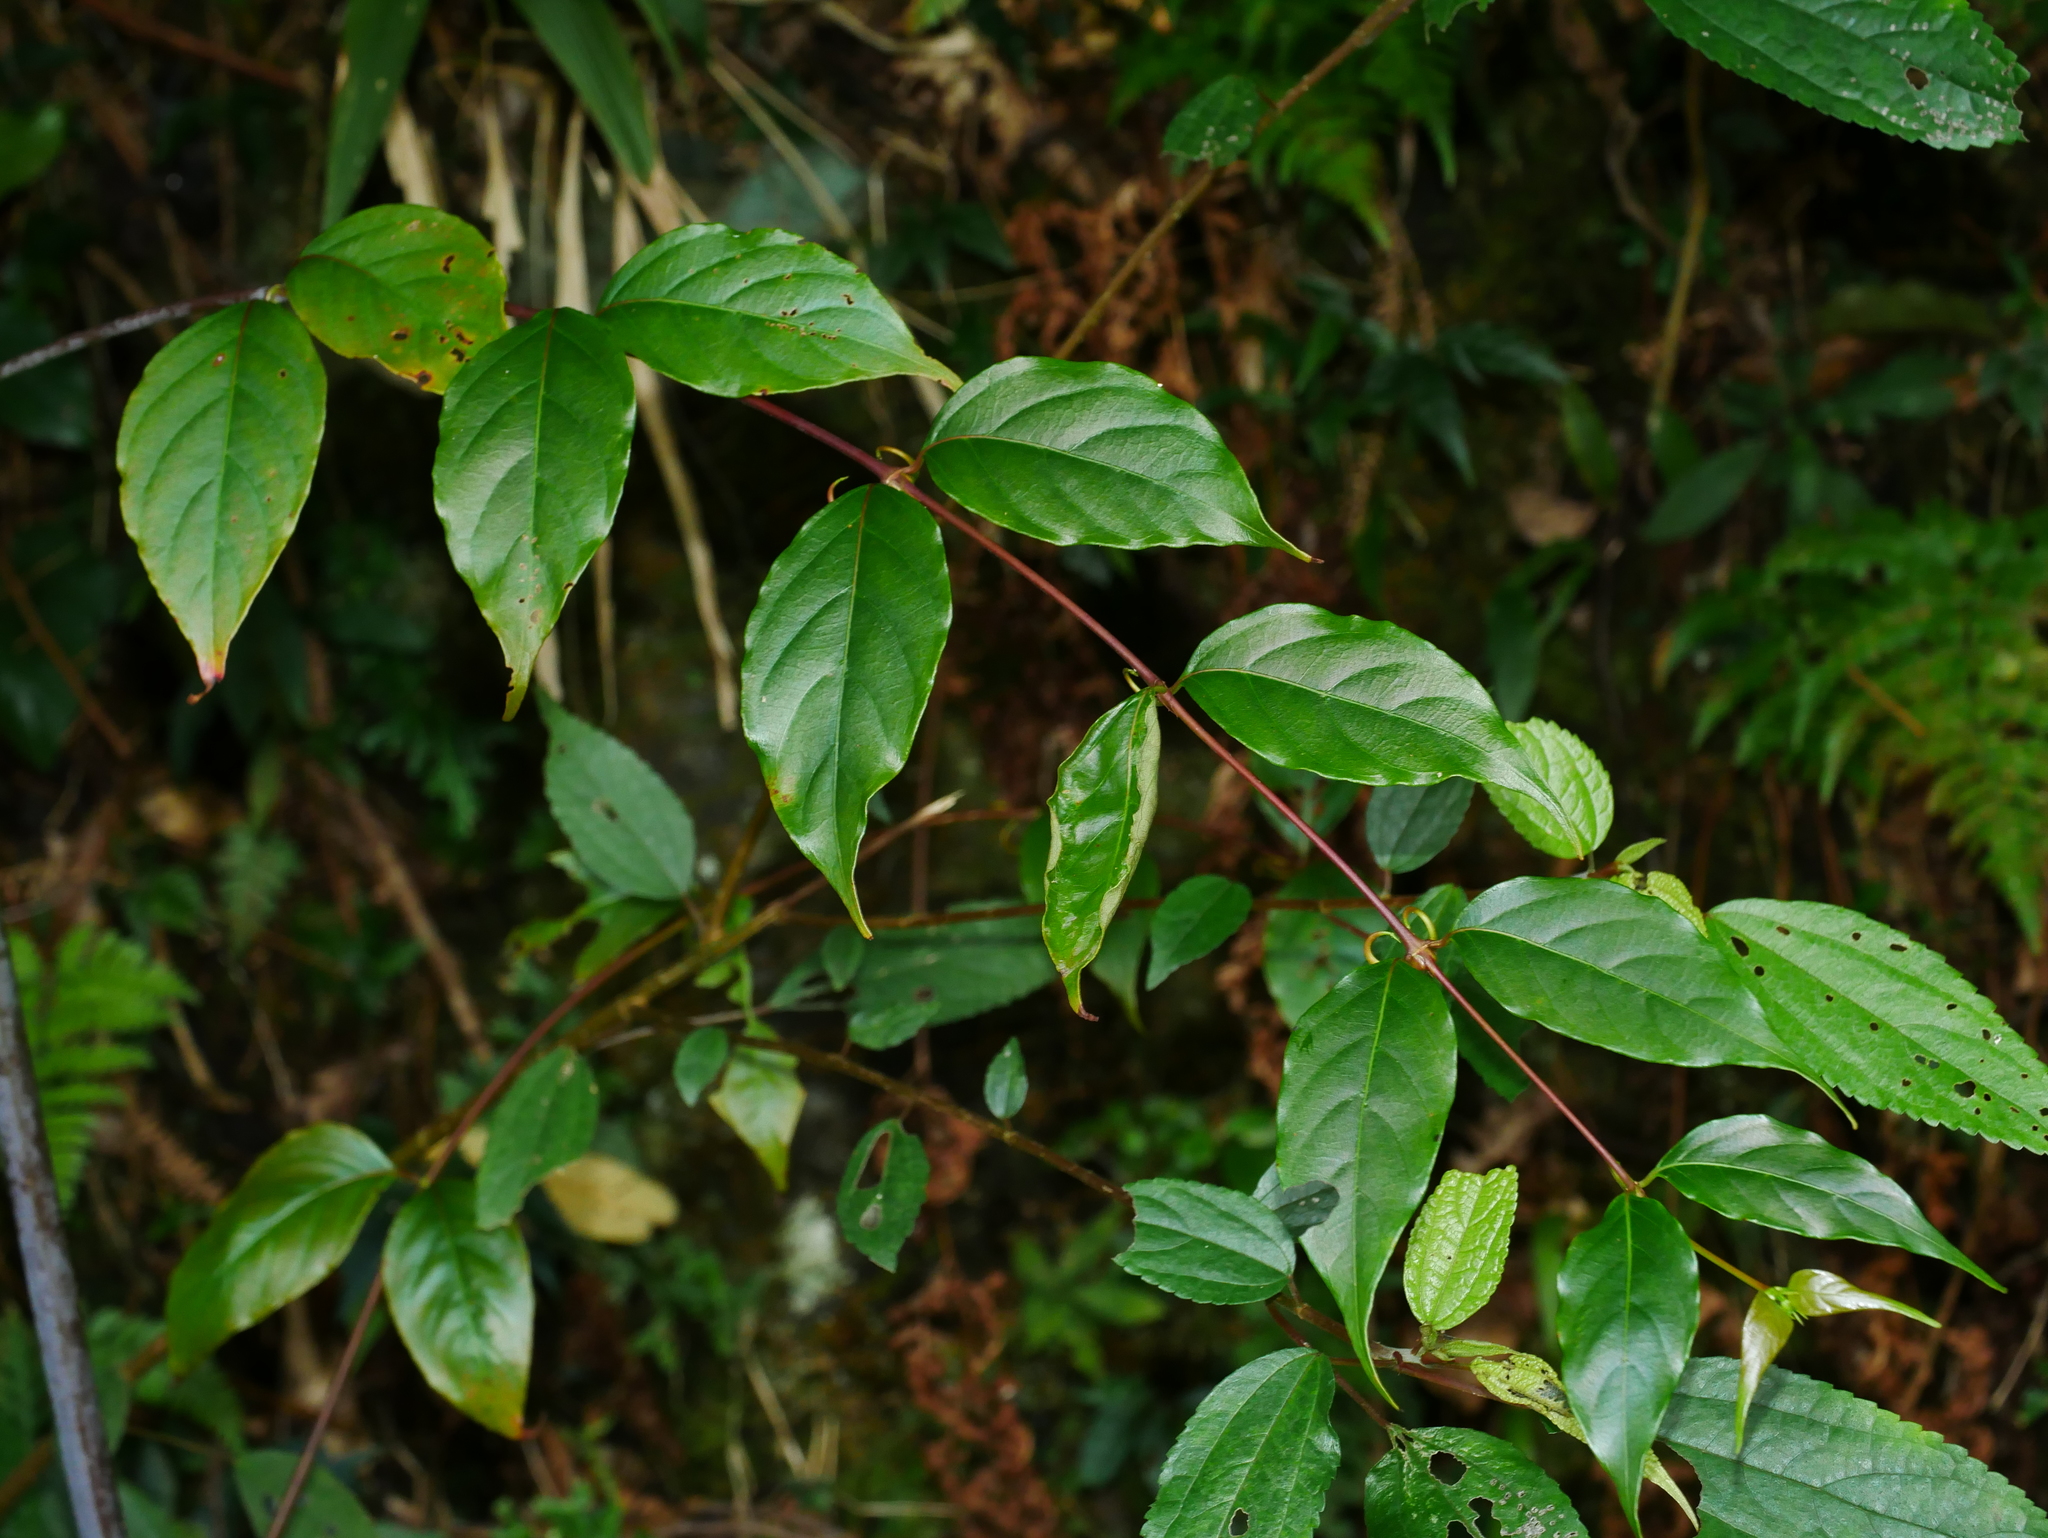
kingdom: Plantae
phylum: Tracheophyta
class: Magnoliopsida
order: Gentianales
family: Rubiaceae
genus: Uncaria
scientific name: Uncaria rhynchophylla
